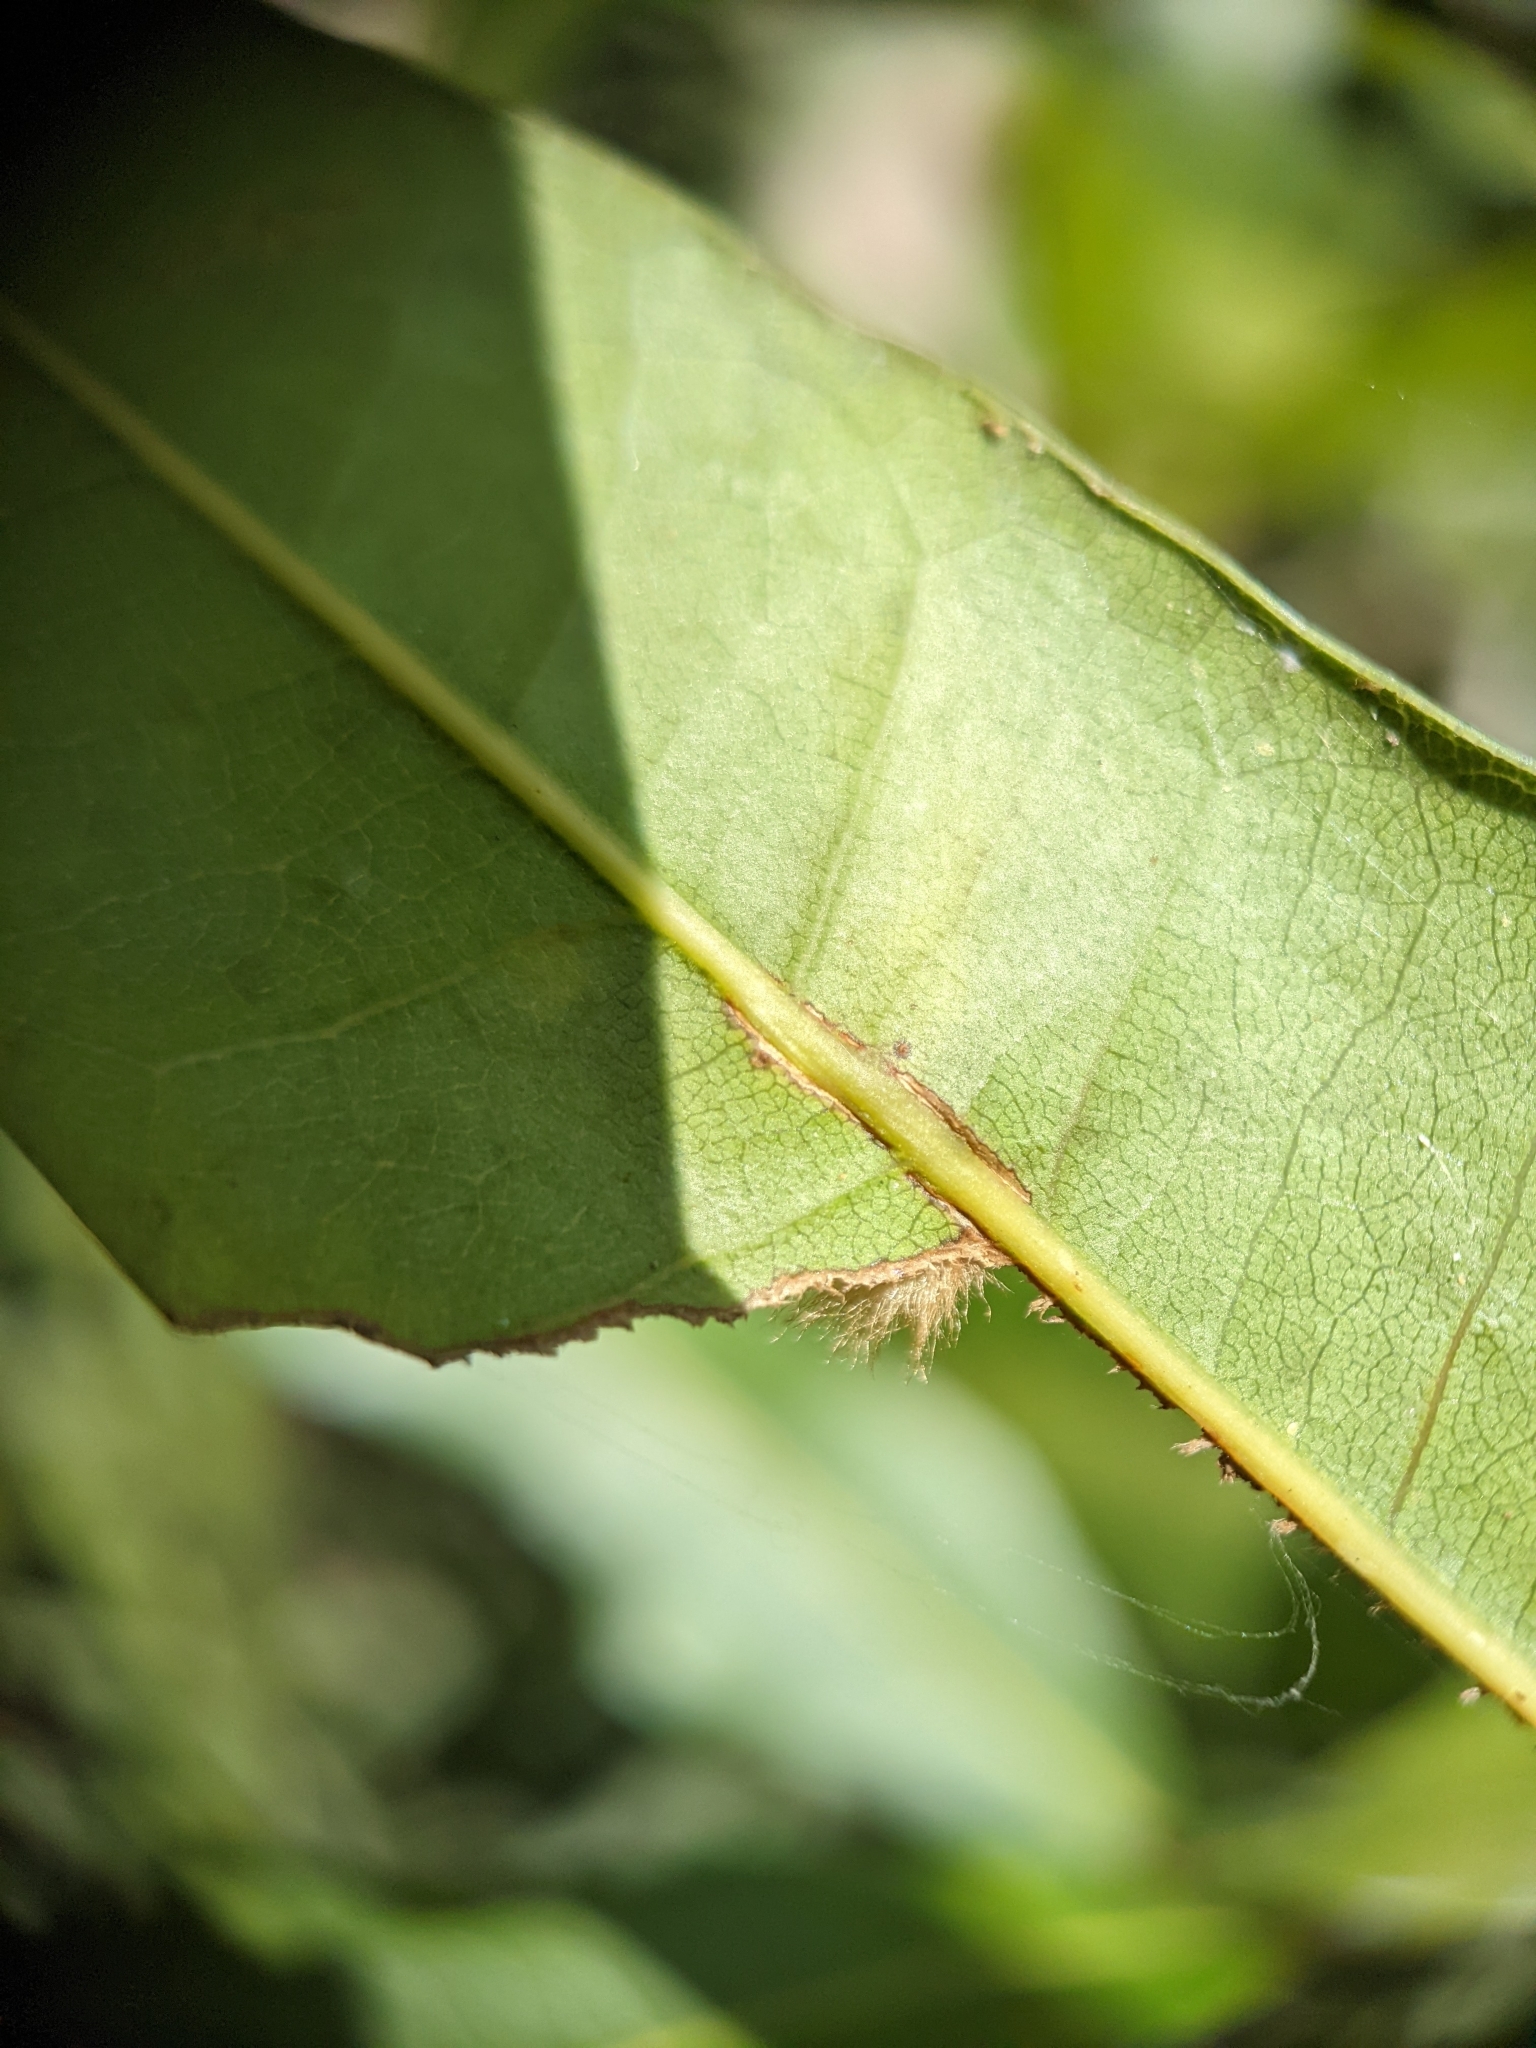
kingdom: Animalia
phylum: Arthropoda
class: Insecta
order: Hymenoptera
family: Cynipidae
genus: Callirhytis
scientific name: Callirhytis
